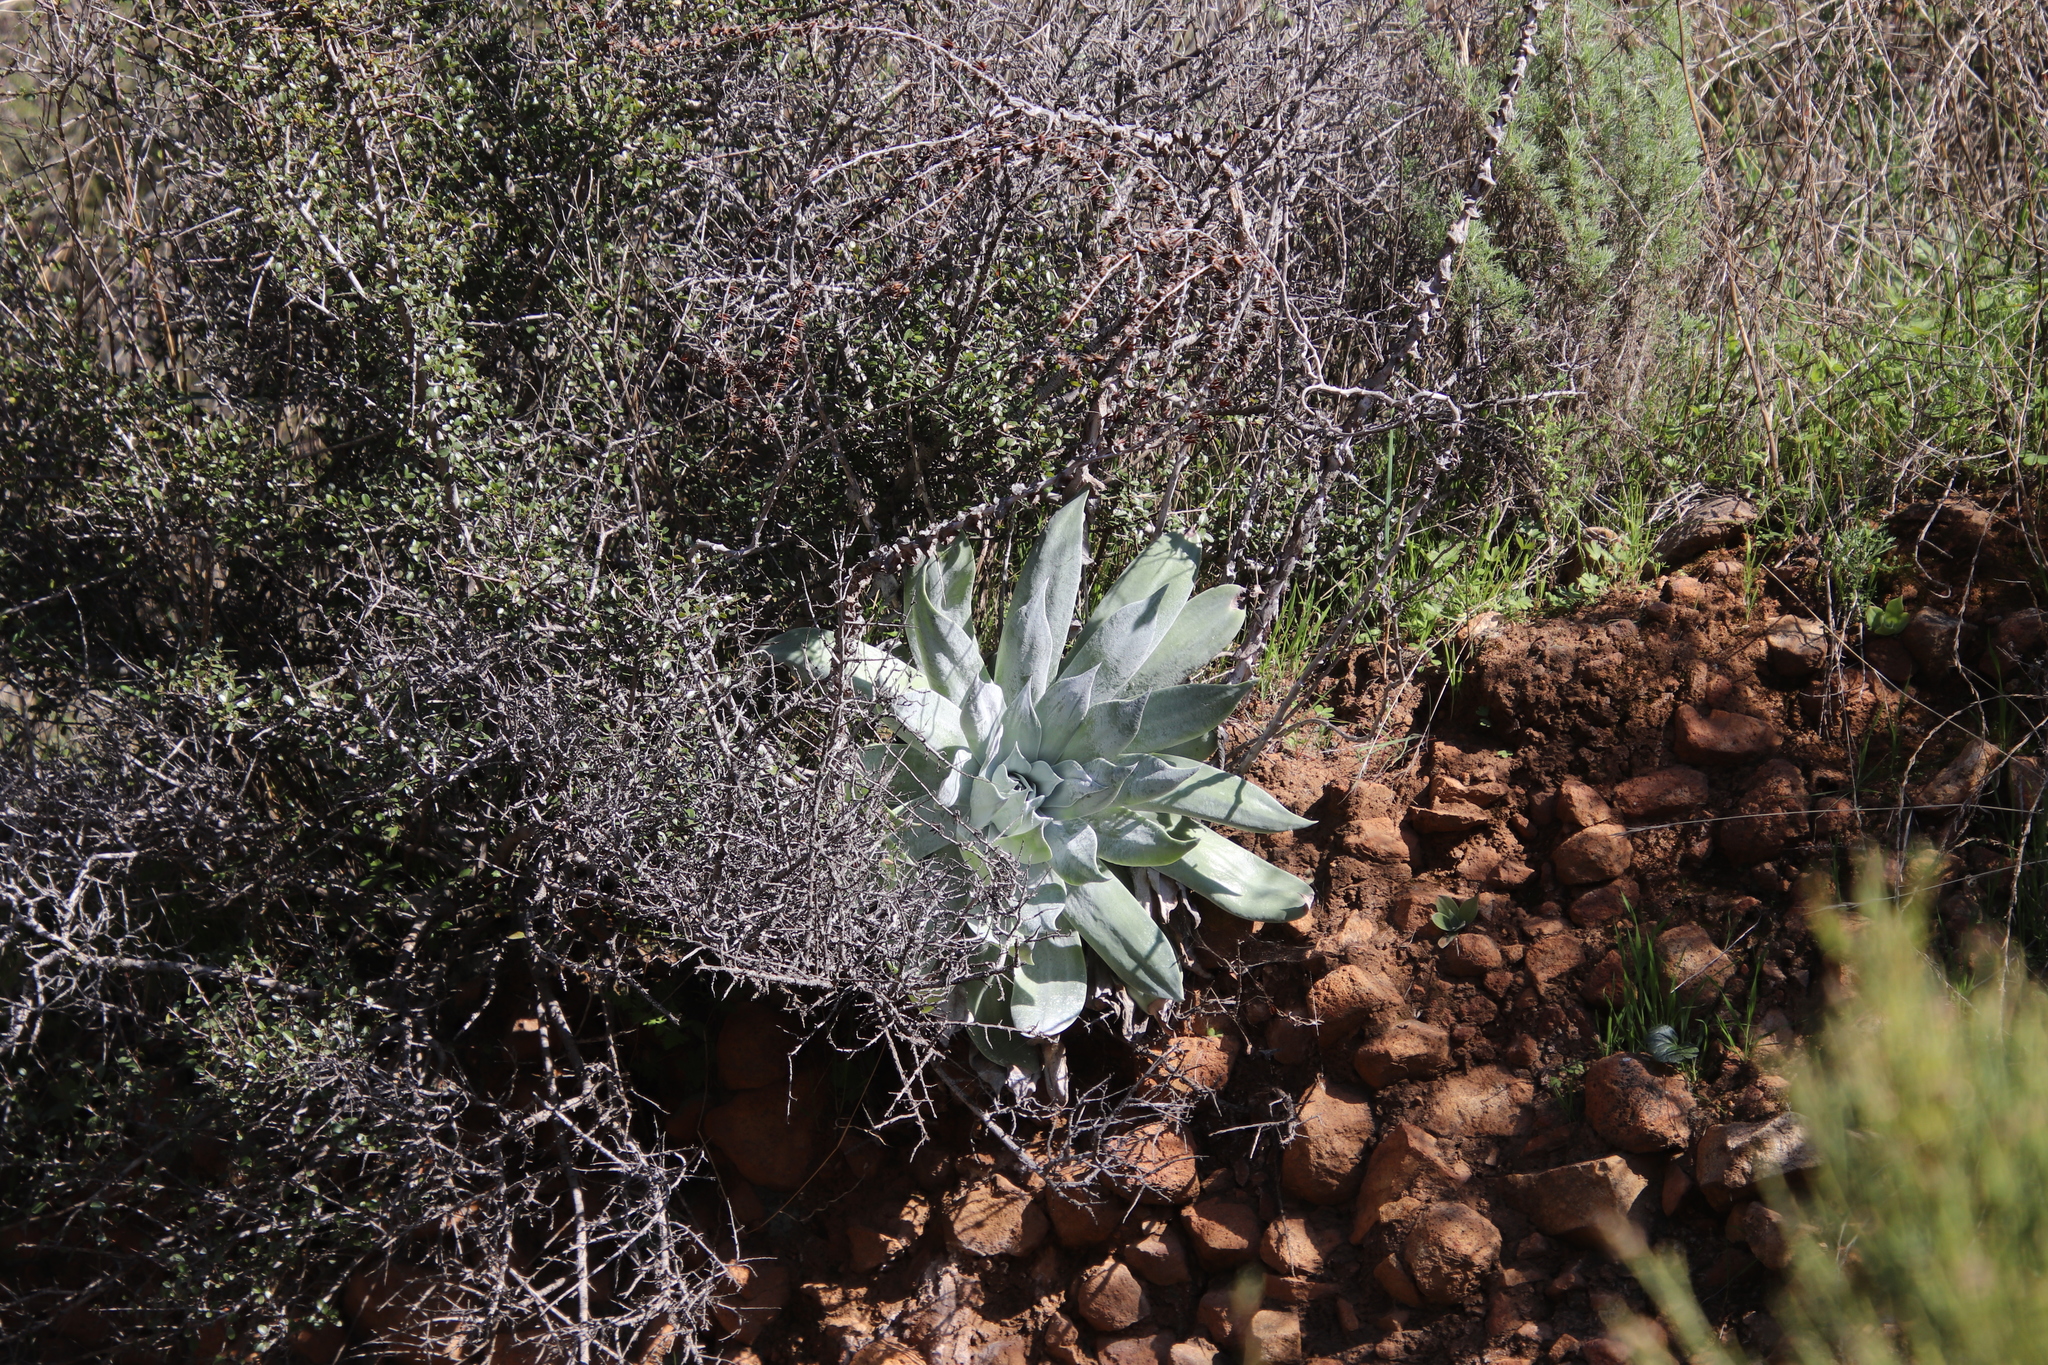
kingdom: Plantae
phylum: Tracheophyta
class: Magnoliopsida
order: Saxifragales
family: Crassulaceae
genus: Dudleya
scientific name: Dudleya pulverulenta
